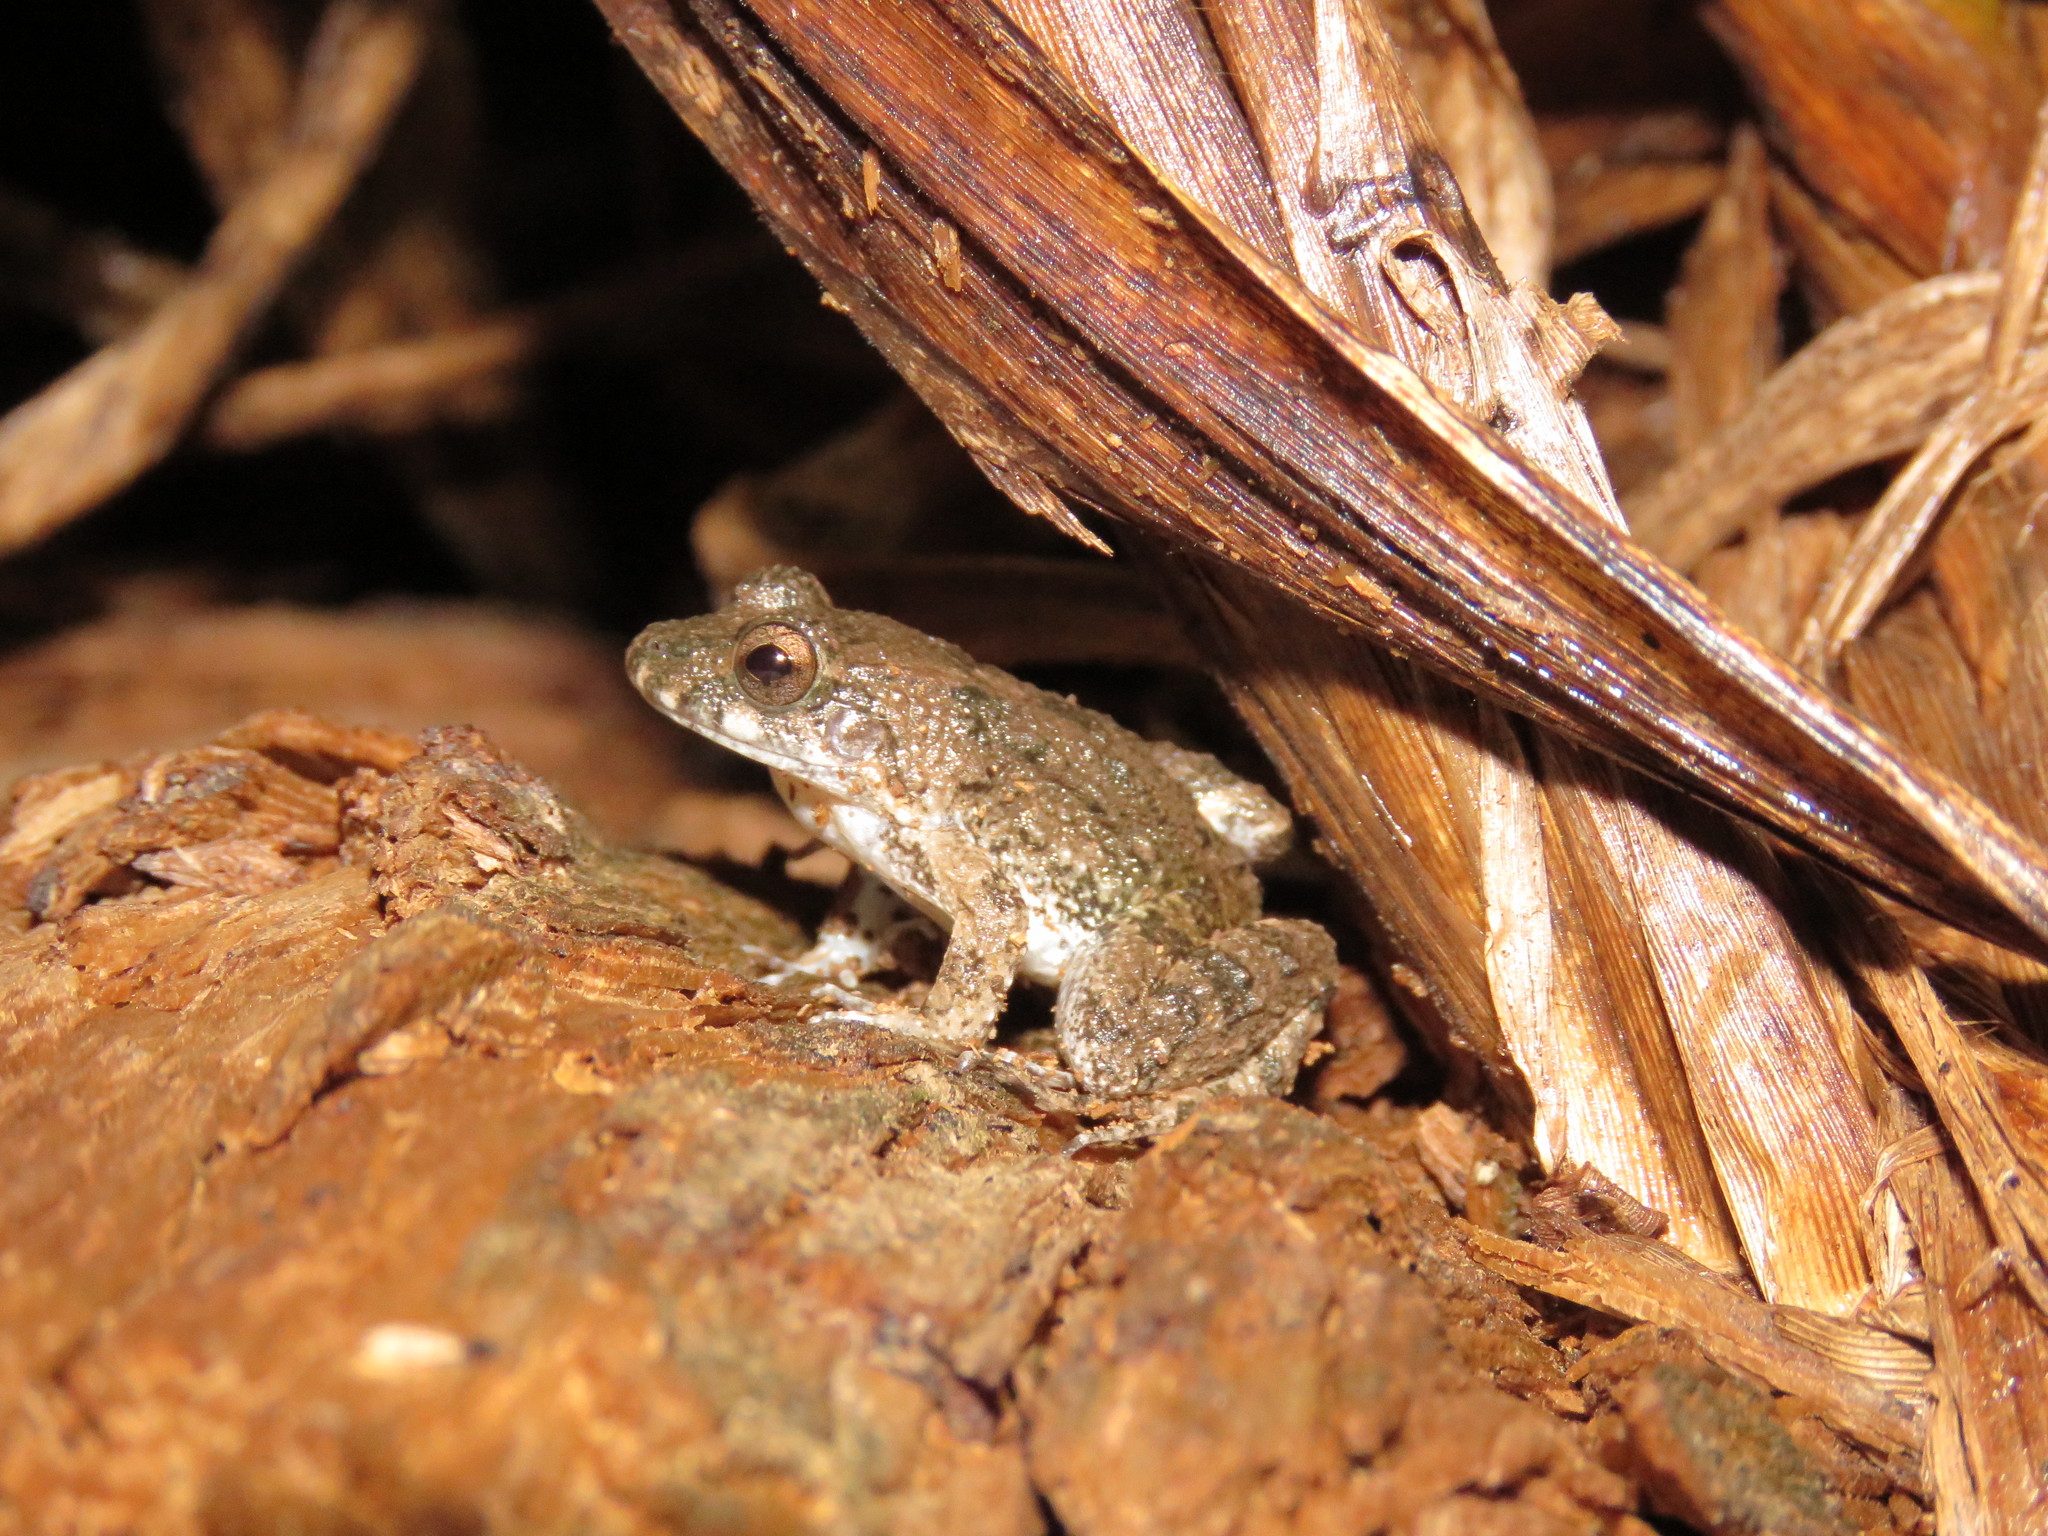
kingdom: Animalia
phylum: Chordata
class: Amphibia
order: Anura
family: Leptodactylidae
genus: Leptodactylus
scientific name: Leptodactylus petersii
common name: Peters' thin-toed frog
